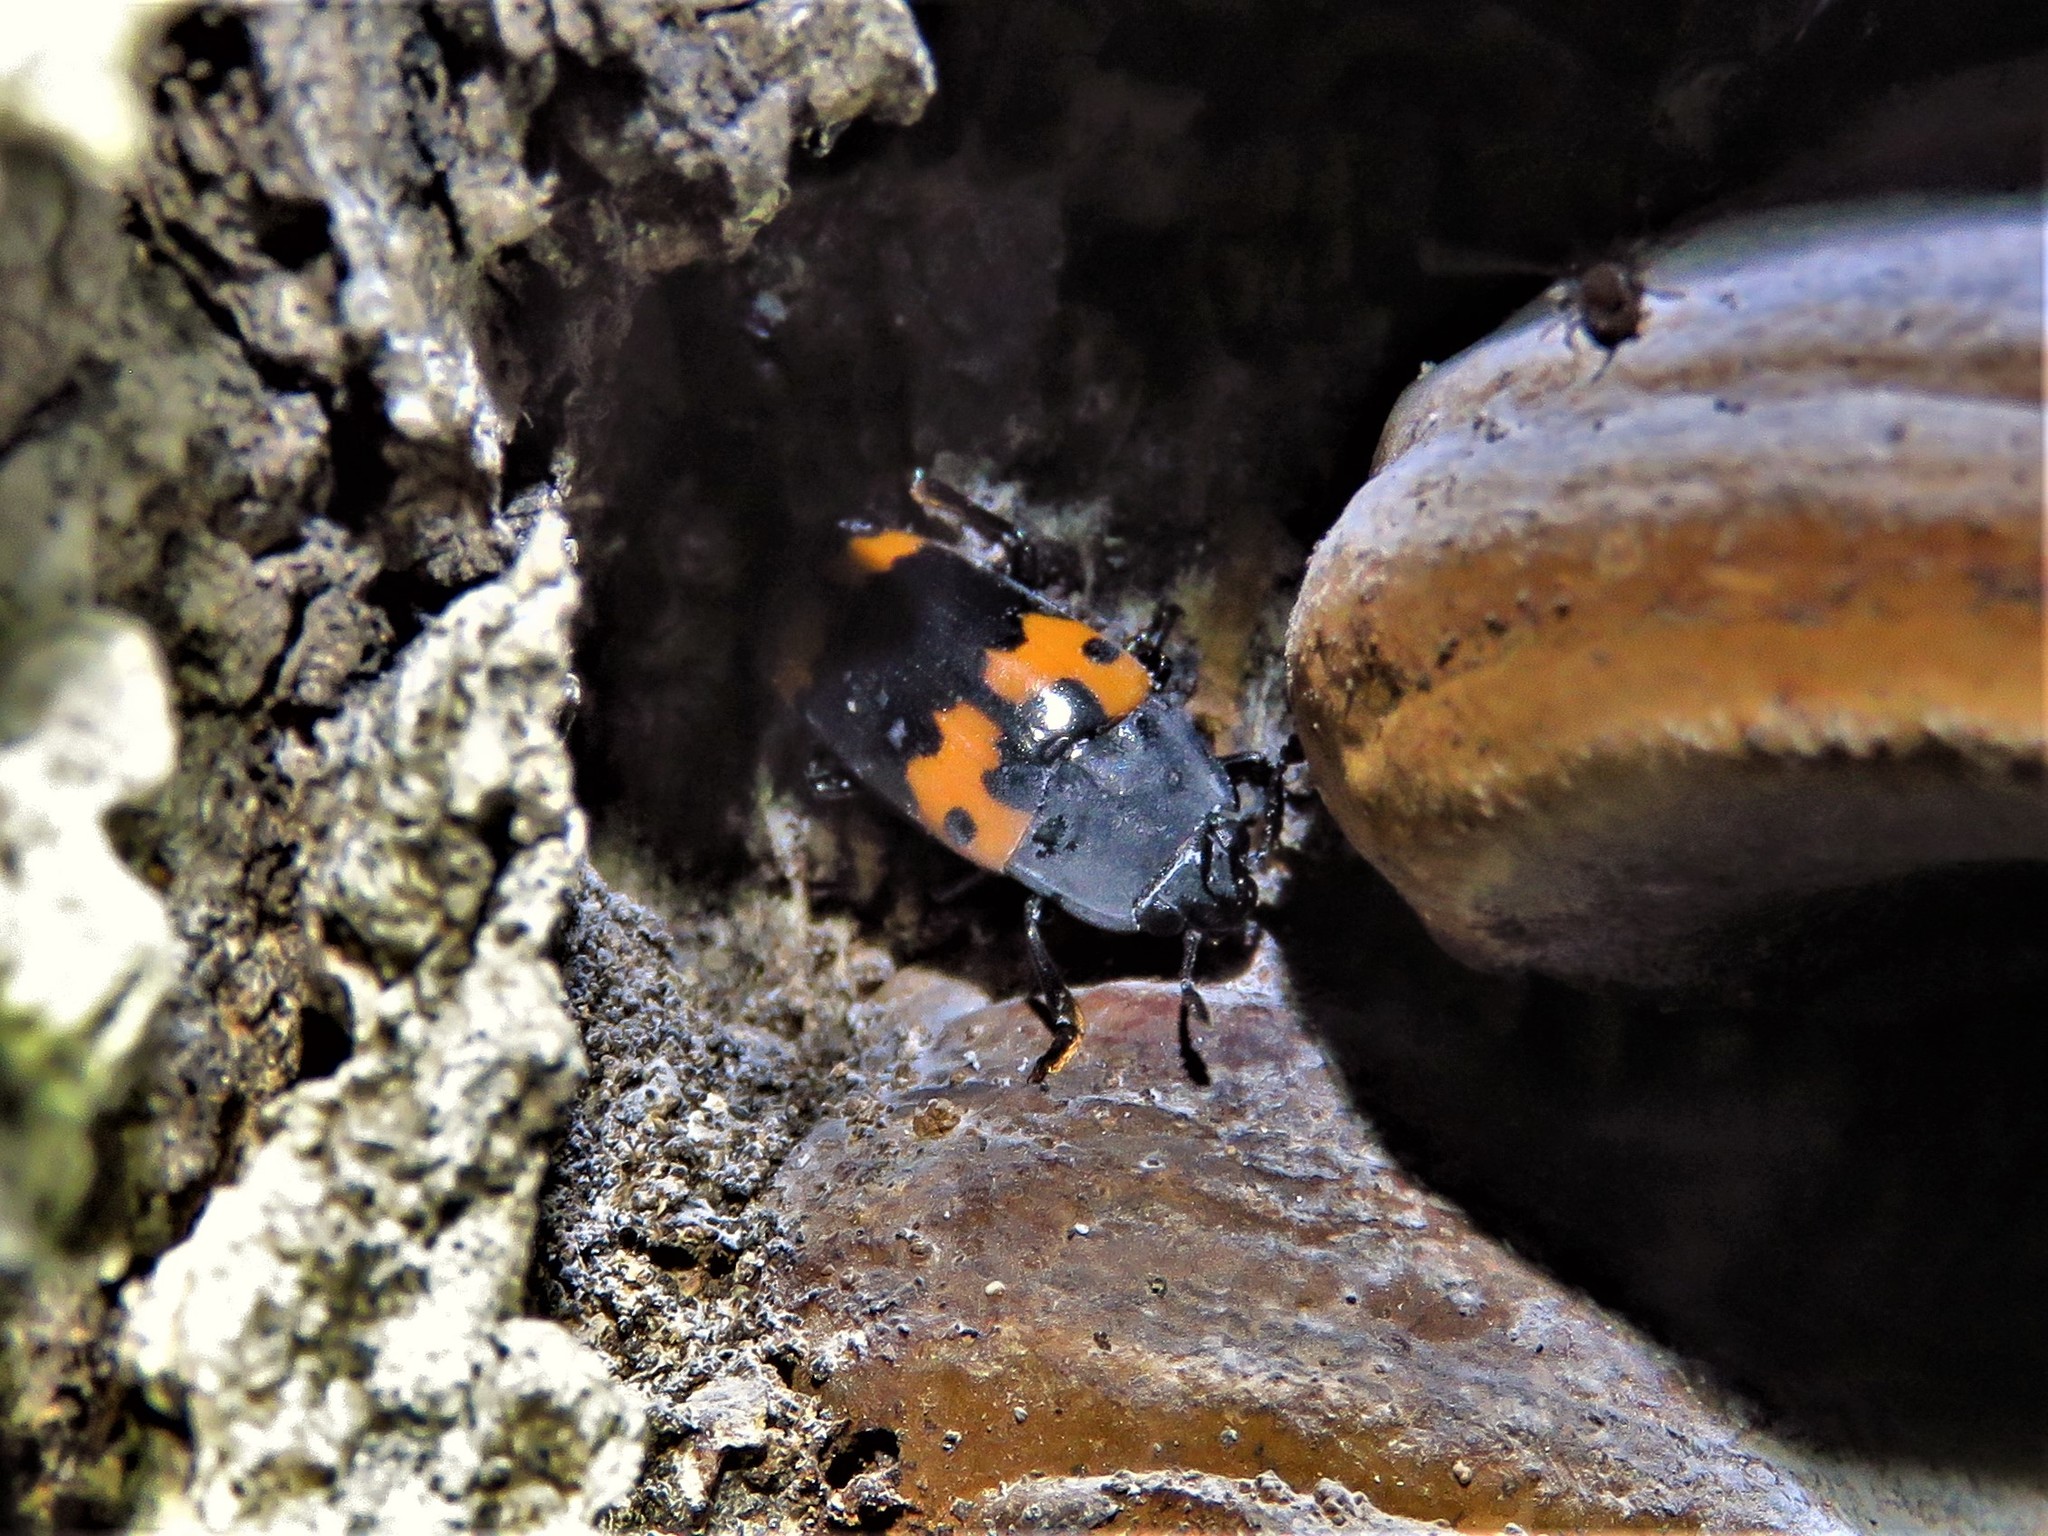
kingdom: Animalia
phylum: Arthropoda
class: Insecta
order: Coleoptera
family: Erotylidae
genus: Megalodacne
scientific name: Megalodacne fasciata
